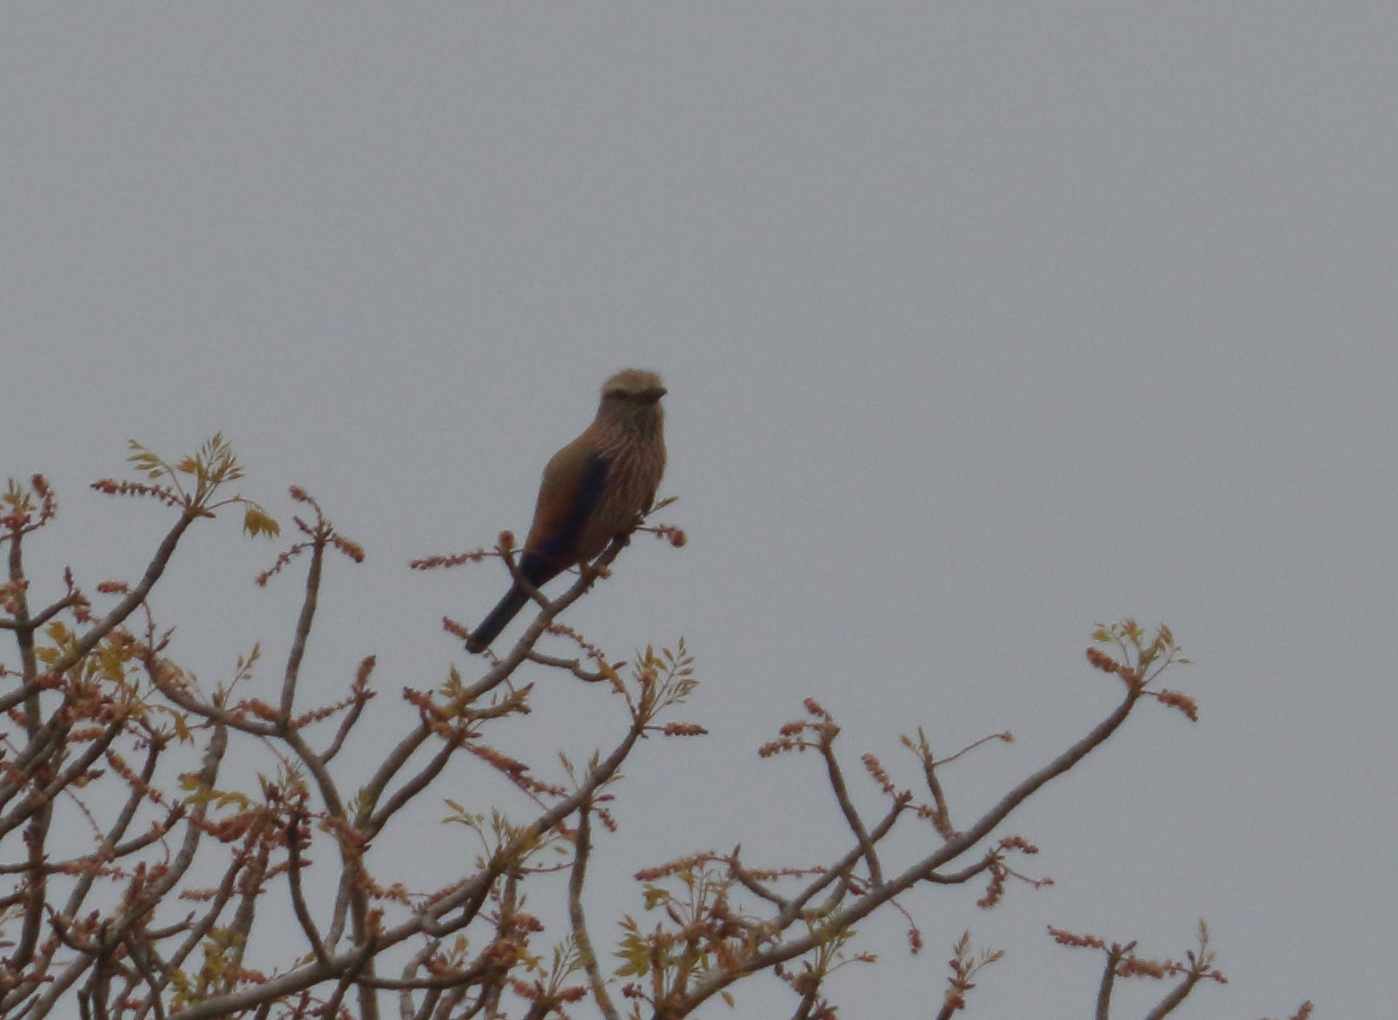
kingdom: Animalia
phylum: Chordata
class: Aves
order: Coraciiformes
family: Coraciidae
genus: Coracias
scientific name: Coracias naevius
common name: Purple roller
